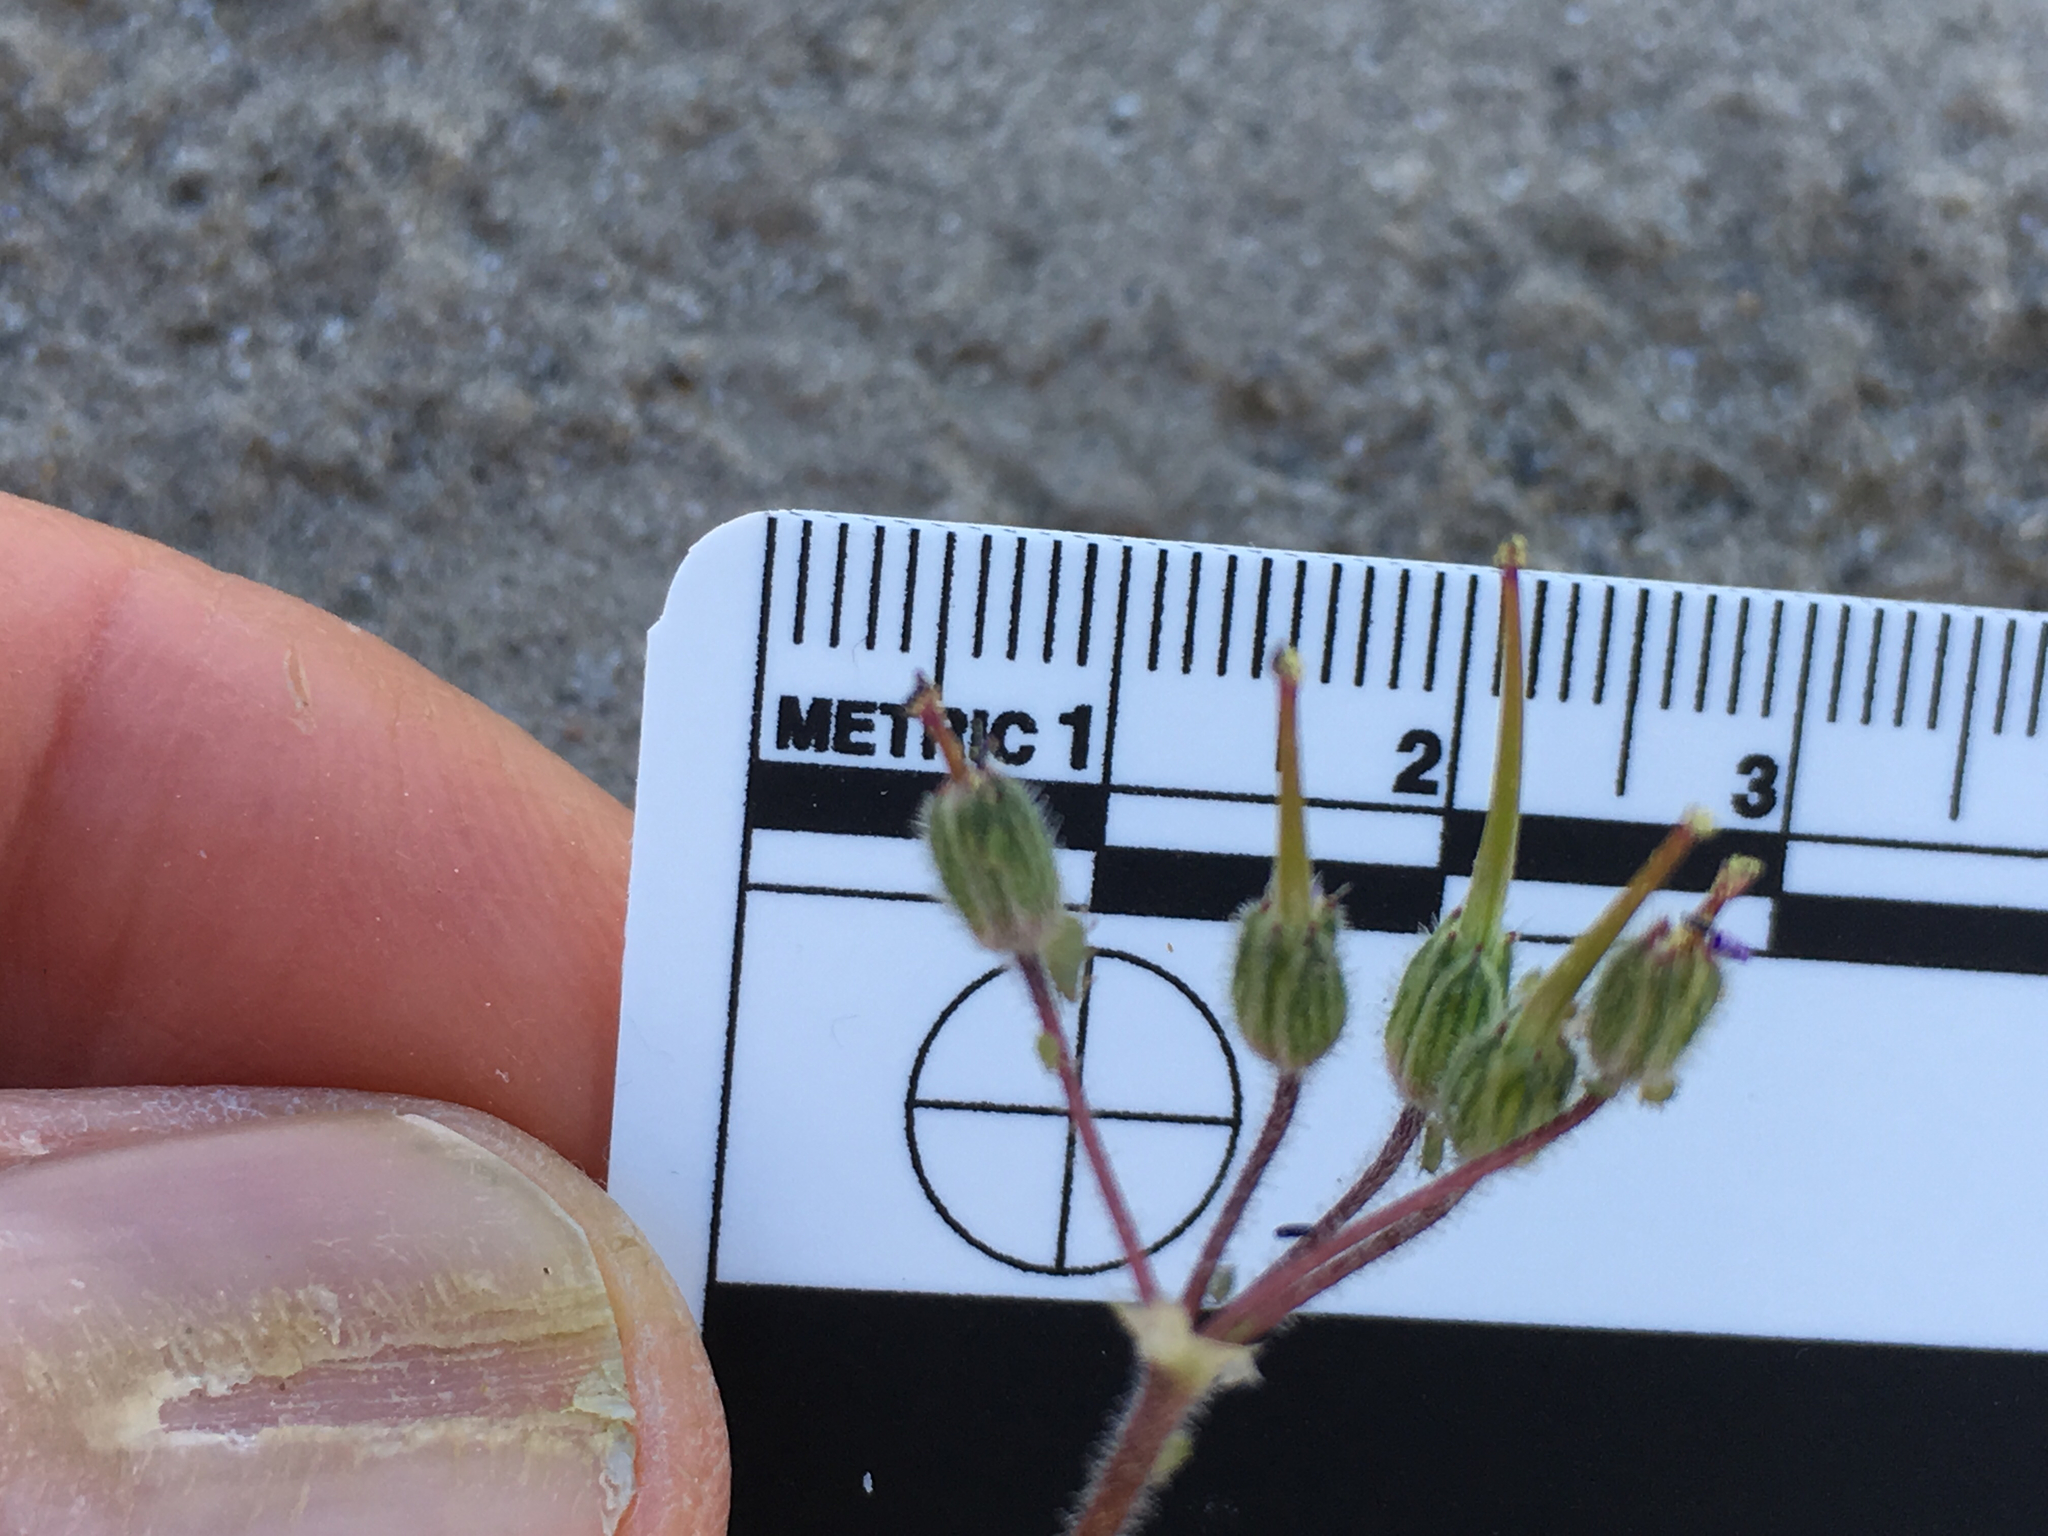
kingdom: Plantae
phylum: Tracheophyta
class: Magnoliopsida
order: Geraniales
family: Geraniaceae
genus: Erodium
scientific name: Erodium cicutarium
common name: Common stork's-bill
